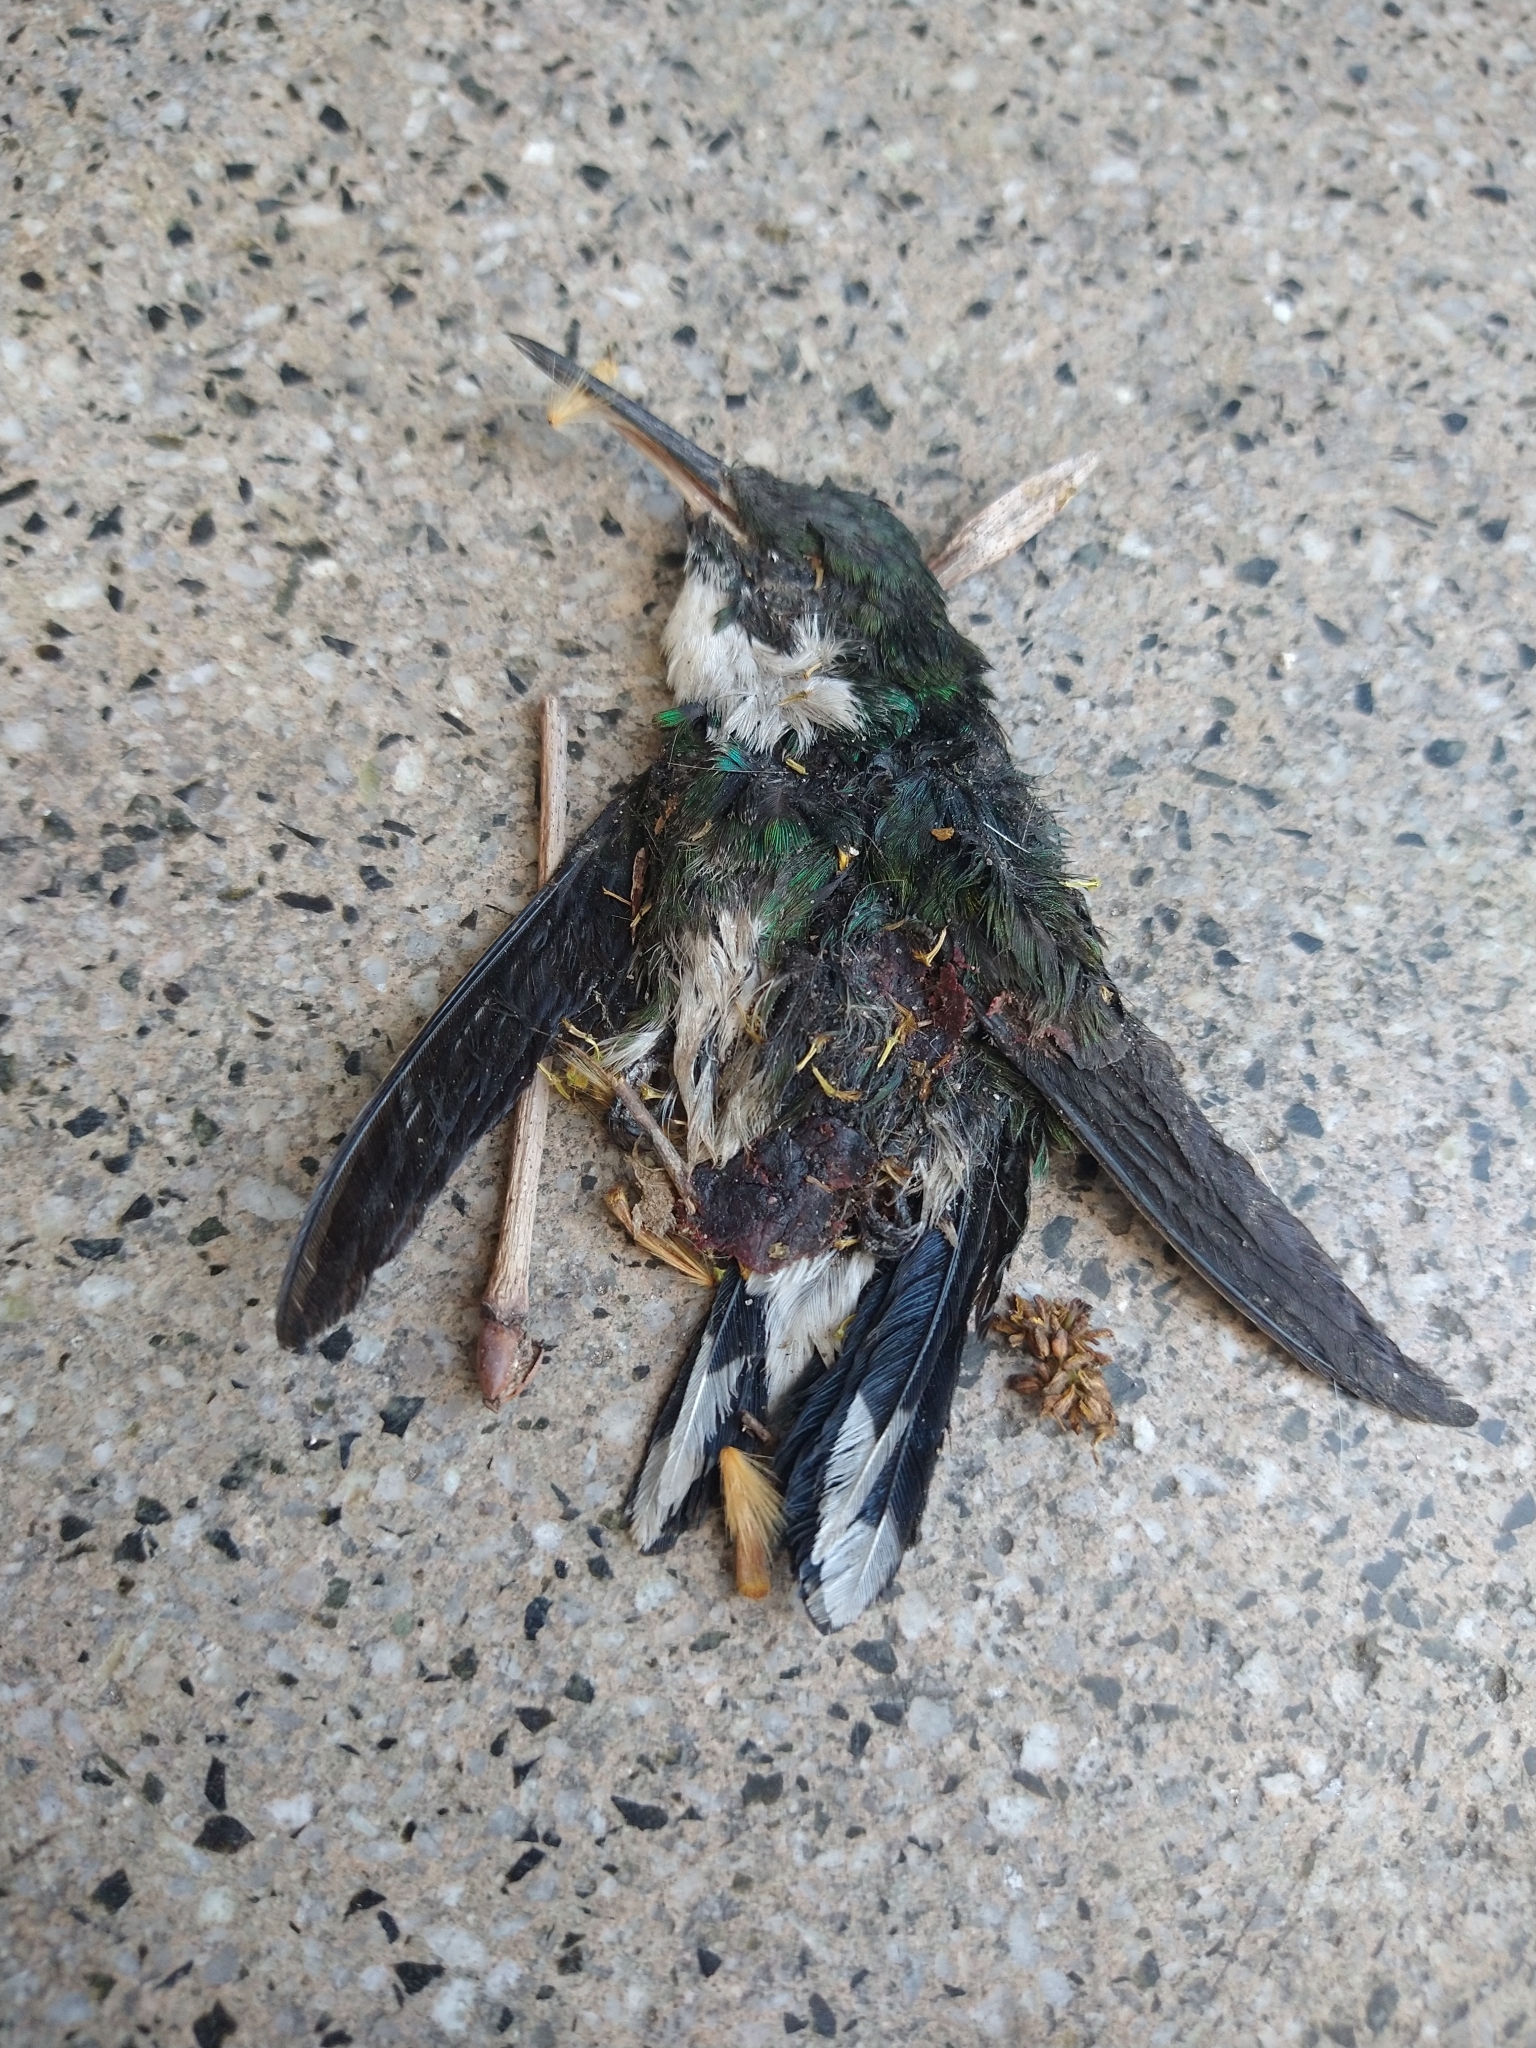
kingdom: Animalia
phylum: Chordata
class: Aves
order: Apodiformes
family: Trochilidae
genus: Leucochloris
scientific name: Leucochloris albicollis
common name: White-throated hummingbird
